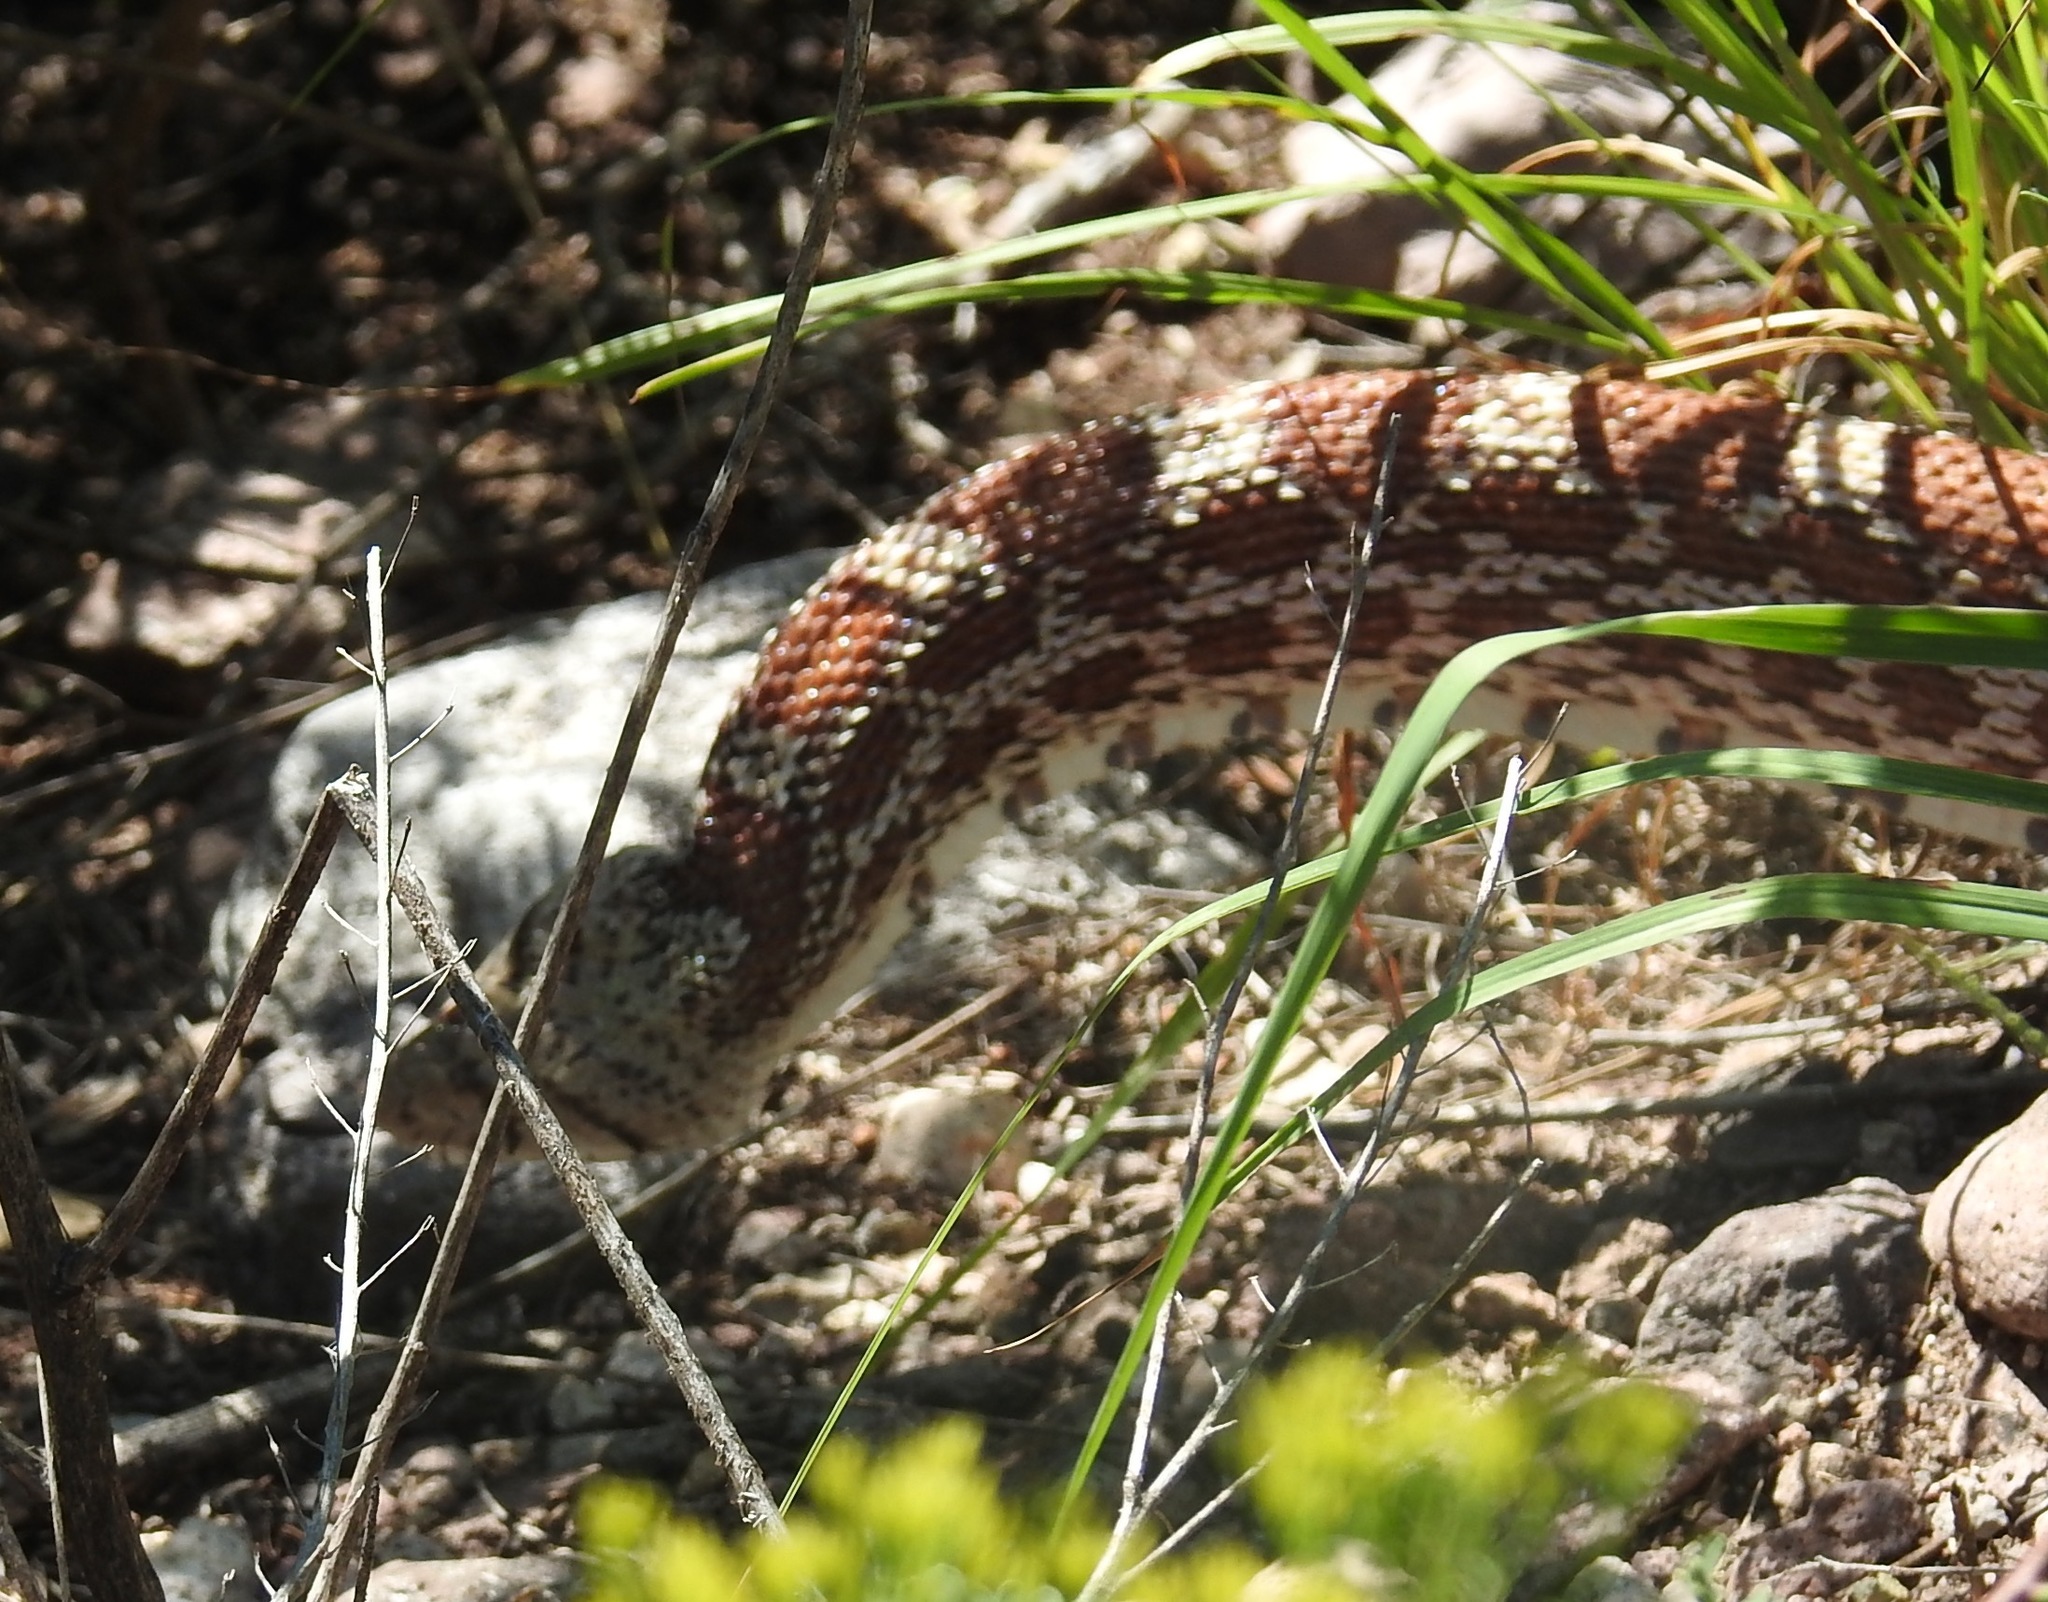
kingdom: Animalia
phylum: Chordata
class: Squamata
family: Colubridae
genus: Pituophis
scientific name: Pituophis catenifer
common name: Gopher snake
